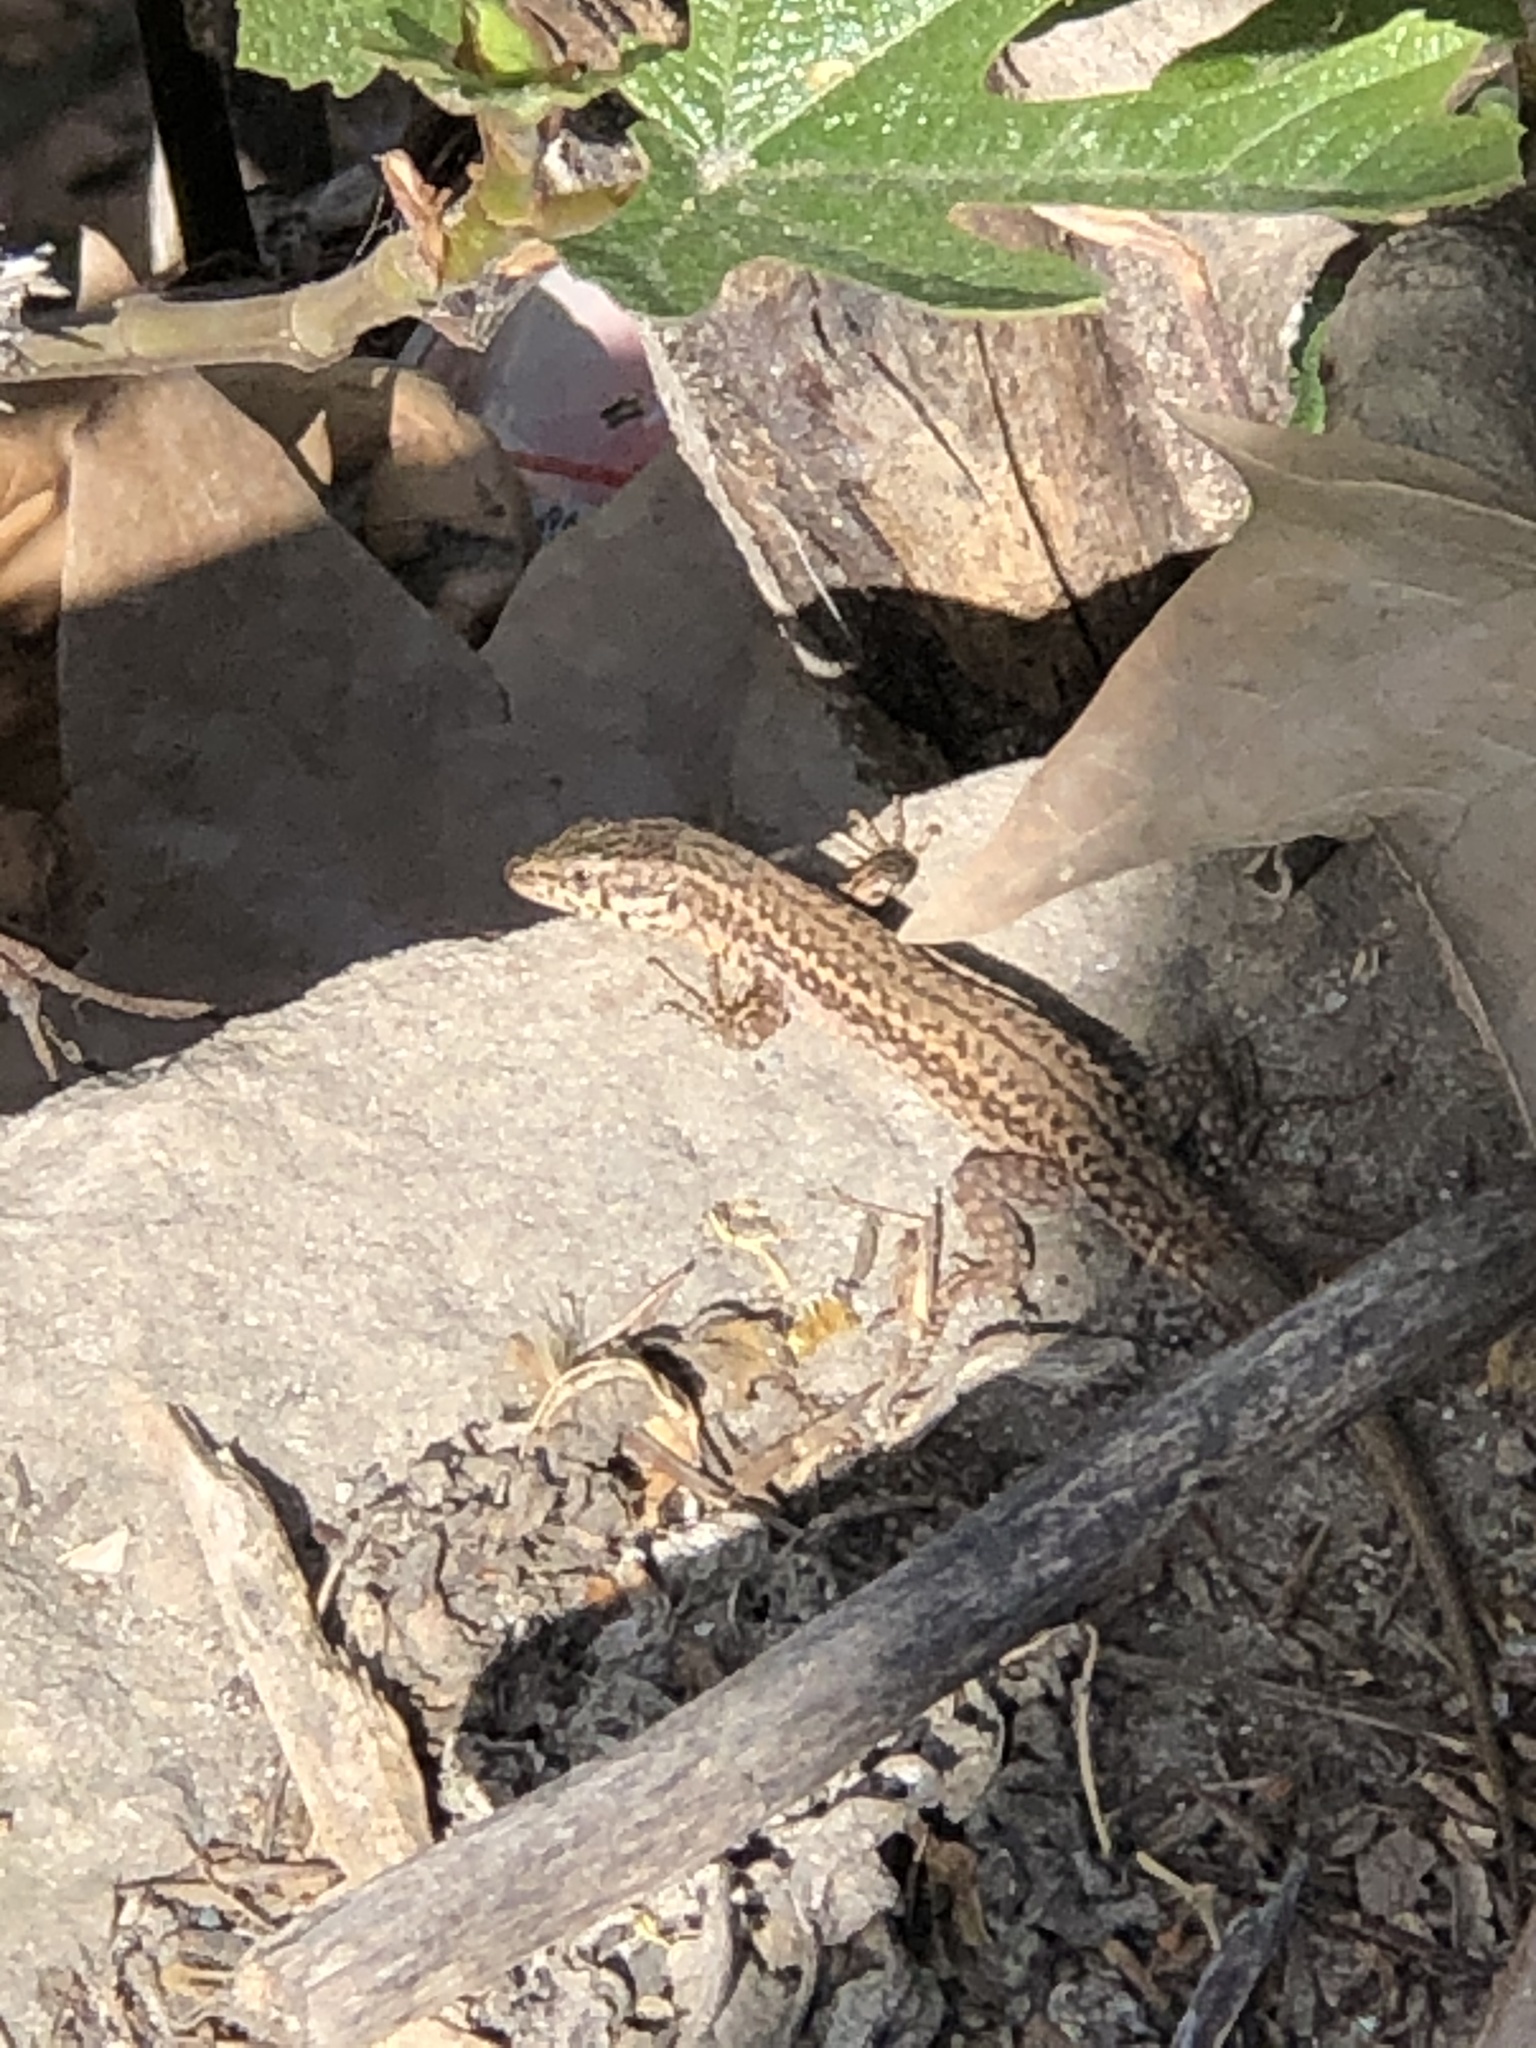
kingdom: Animalia
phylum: Chordata
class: Squamata
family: Lacertidae
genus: Podarcis
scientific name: Podarcis liolepis
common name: Catalonian wall lizard
